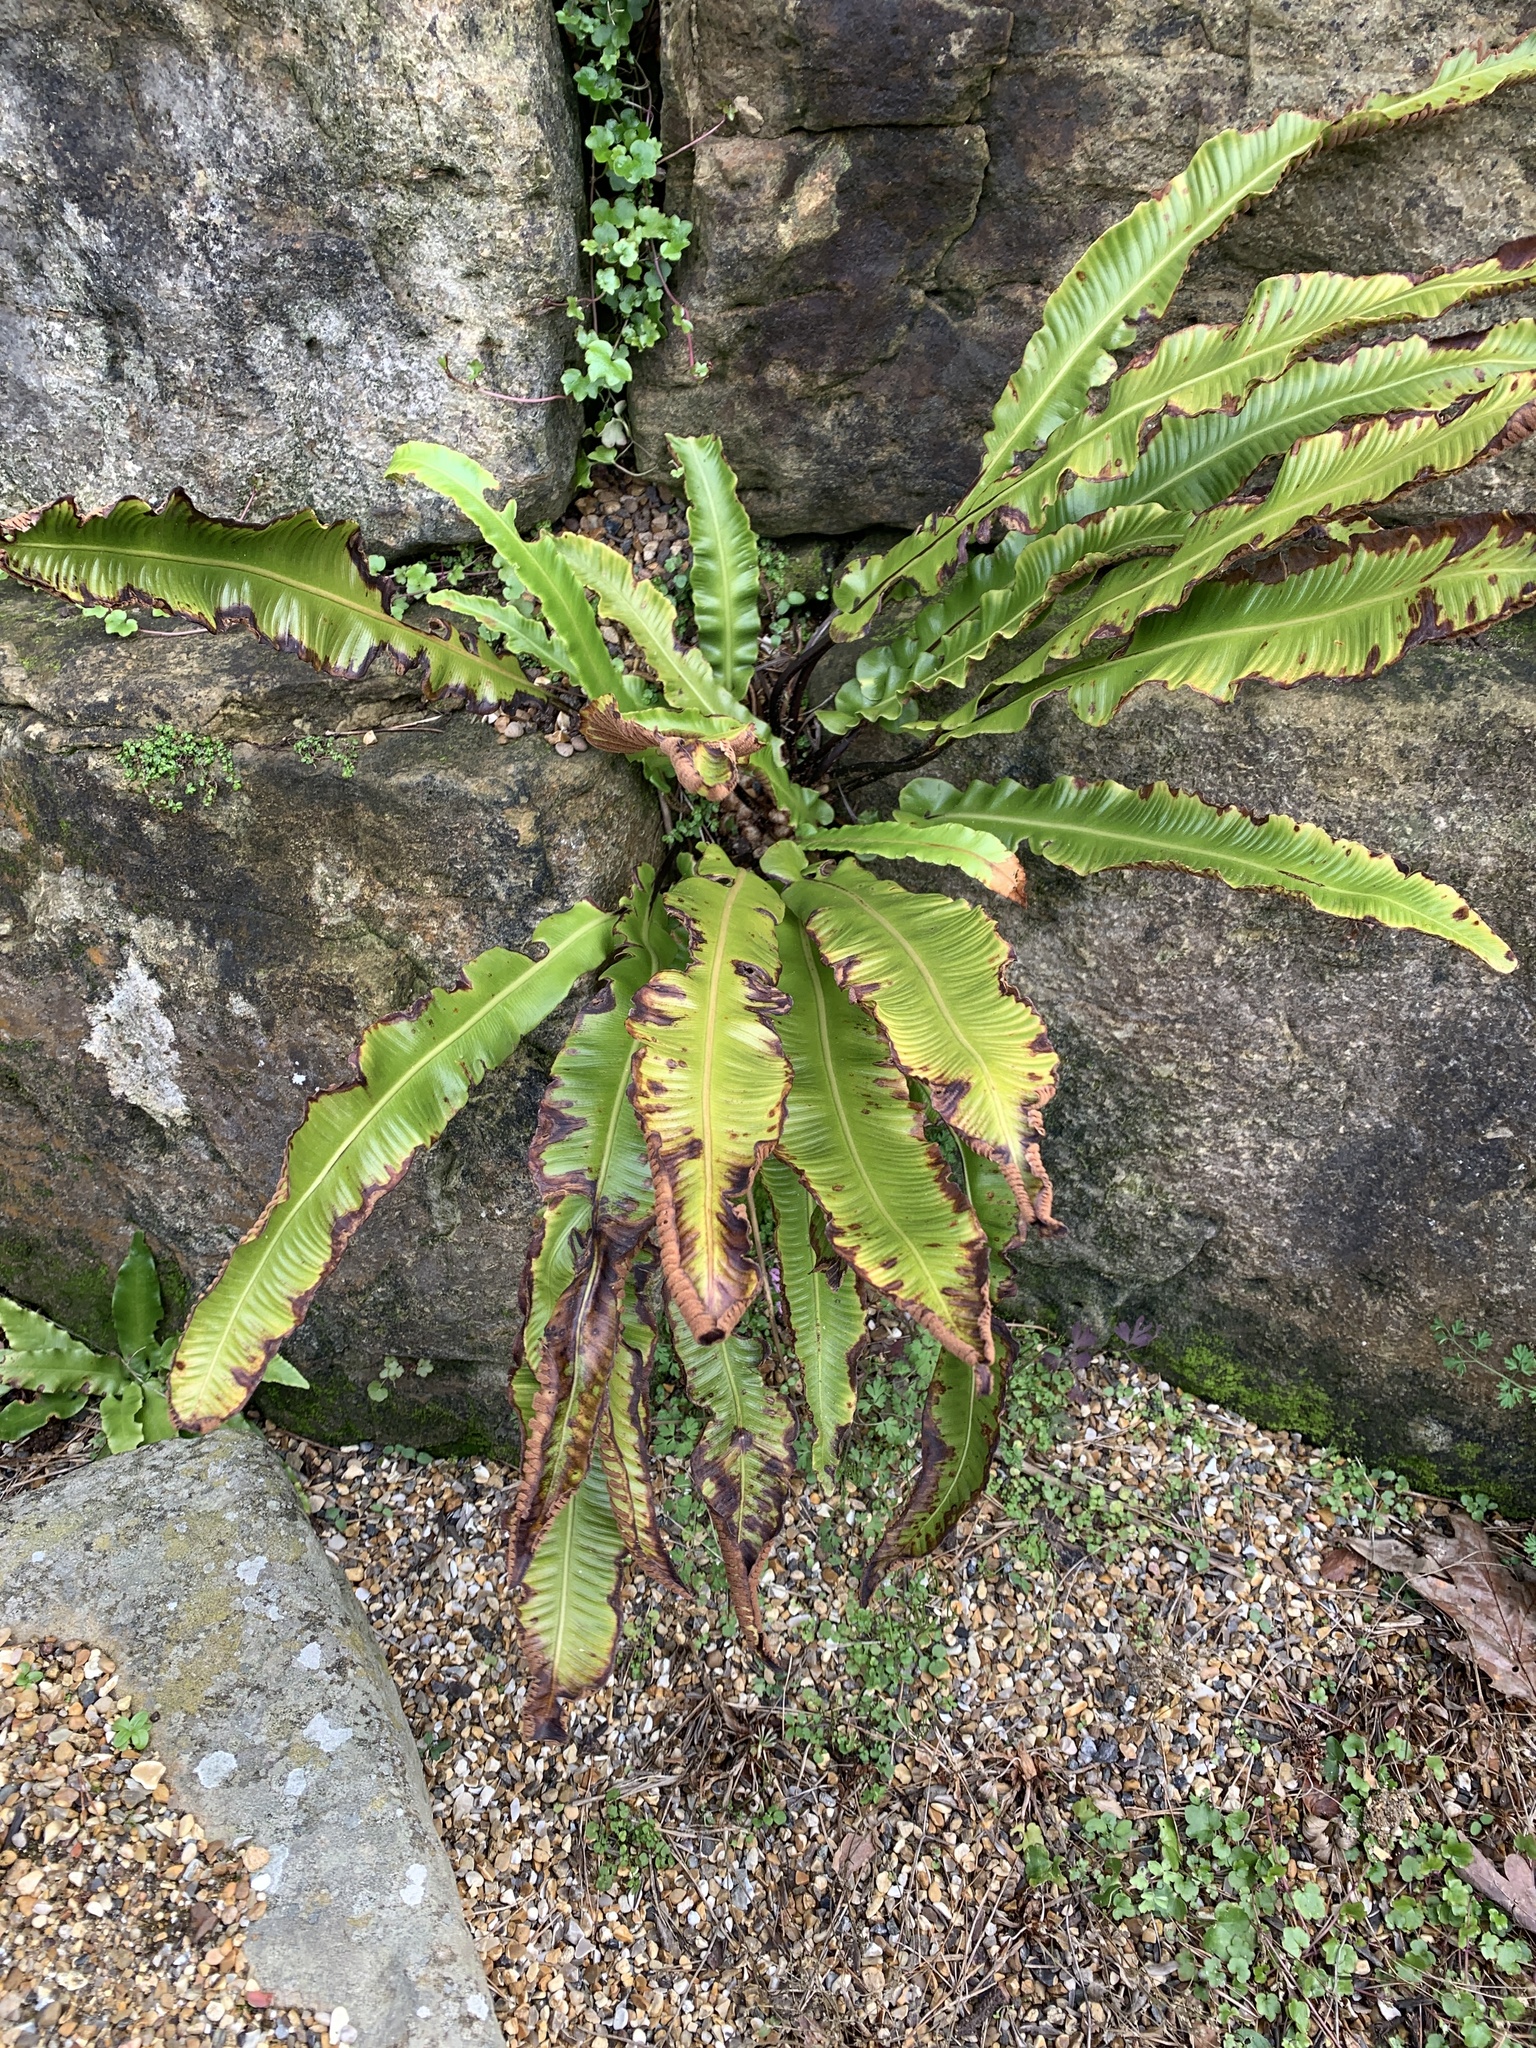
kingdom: Plantae
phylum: Tracheophyta
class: Polypodiopsida
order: Polypodiales
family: Aspleniaceae
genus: Asplenium
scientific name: Asplenium scolopendrium
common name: Hart's-tongue fern
